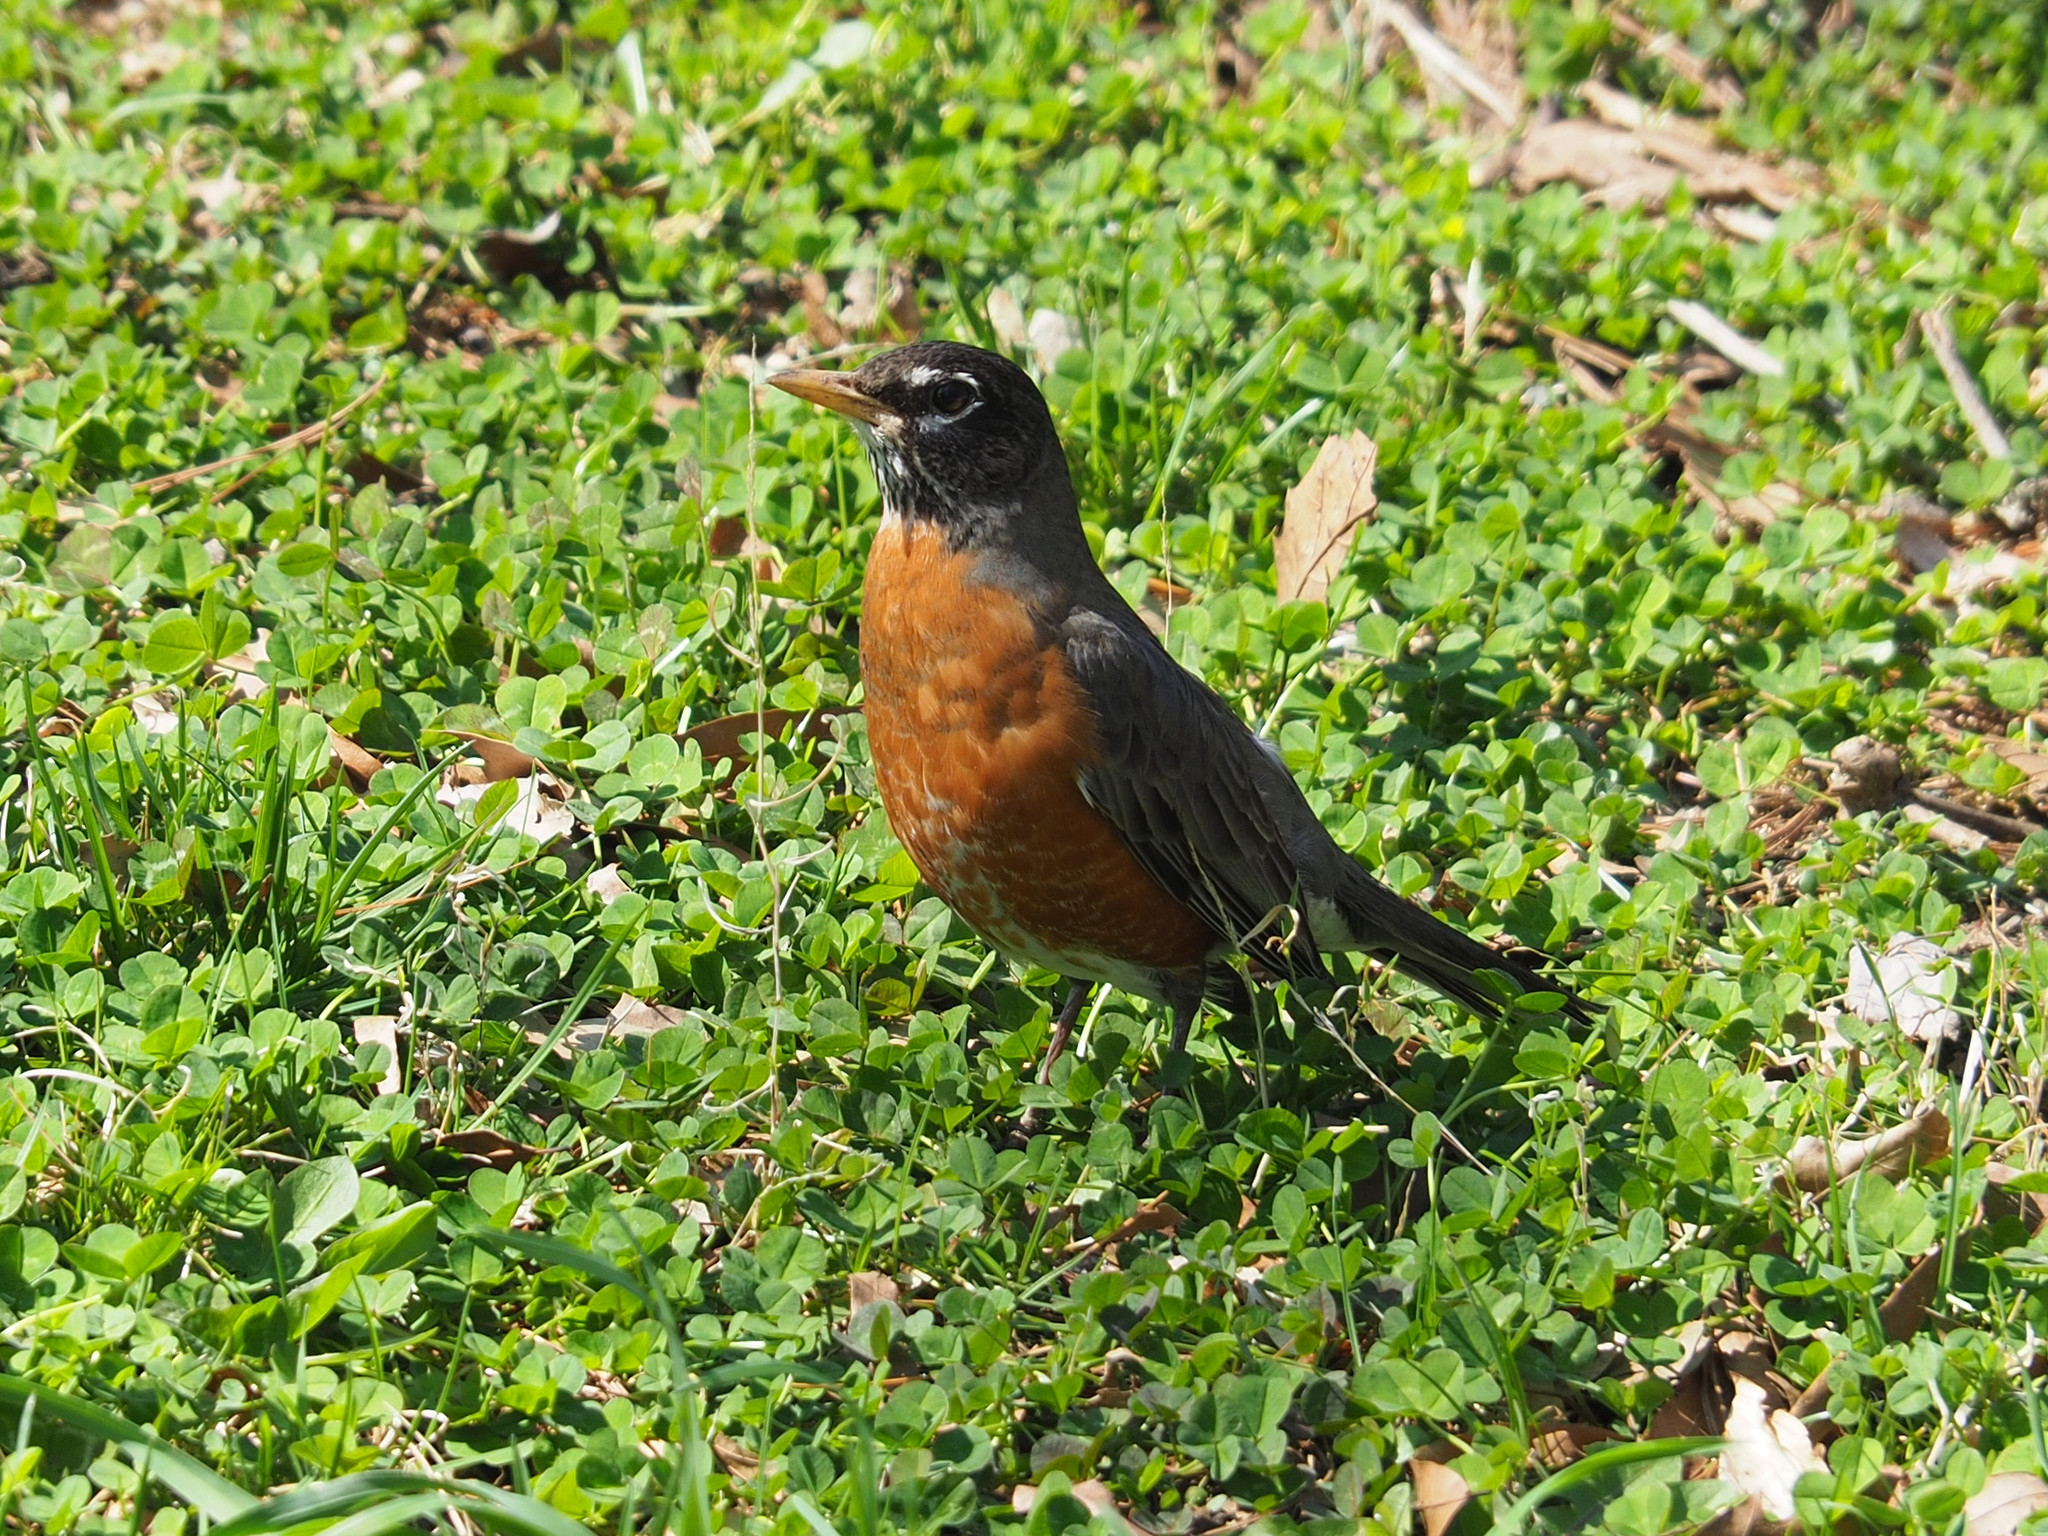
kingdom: Animalia
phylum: Chordata
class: Aves
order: Passeriformes
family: Turdidae
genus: Turdus
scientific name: Turdus migratorius
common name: American robin
